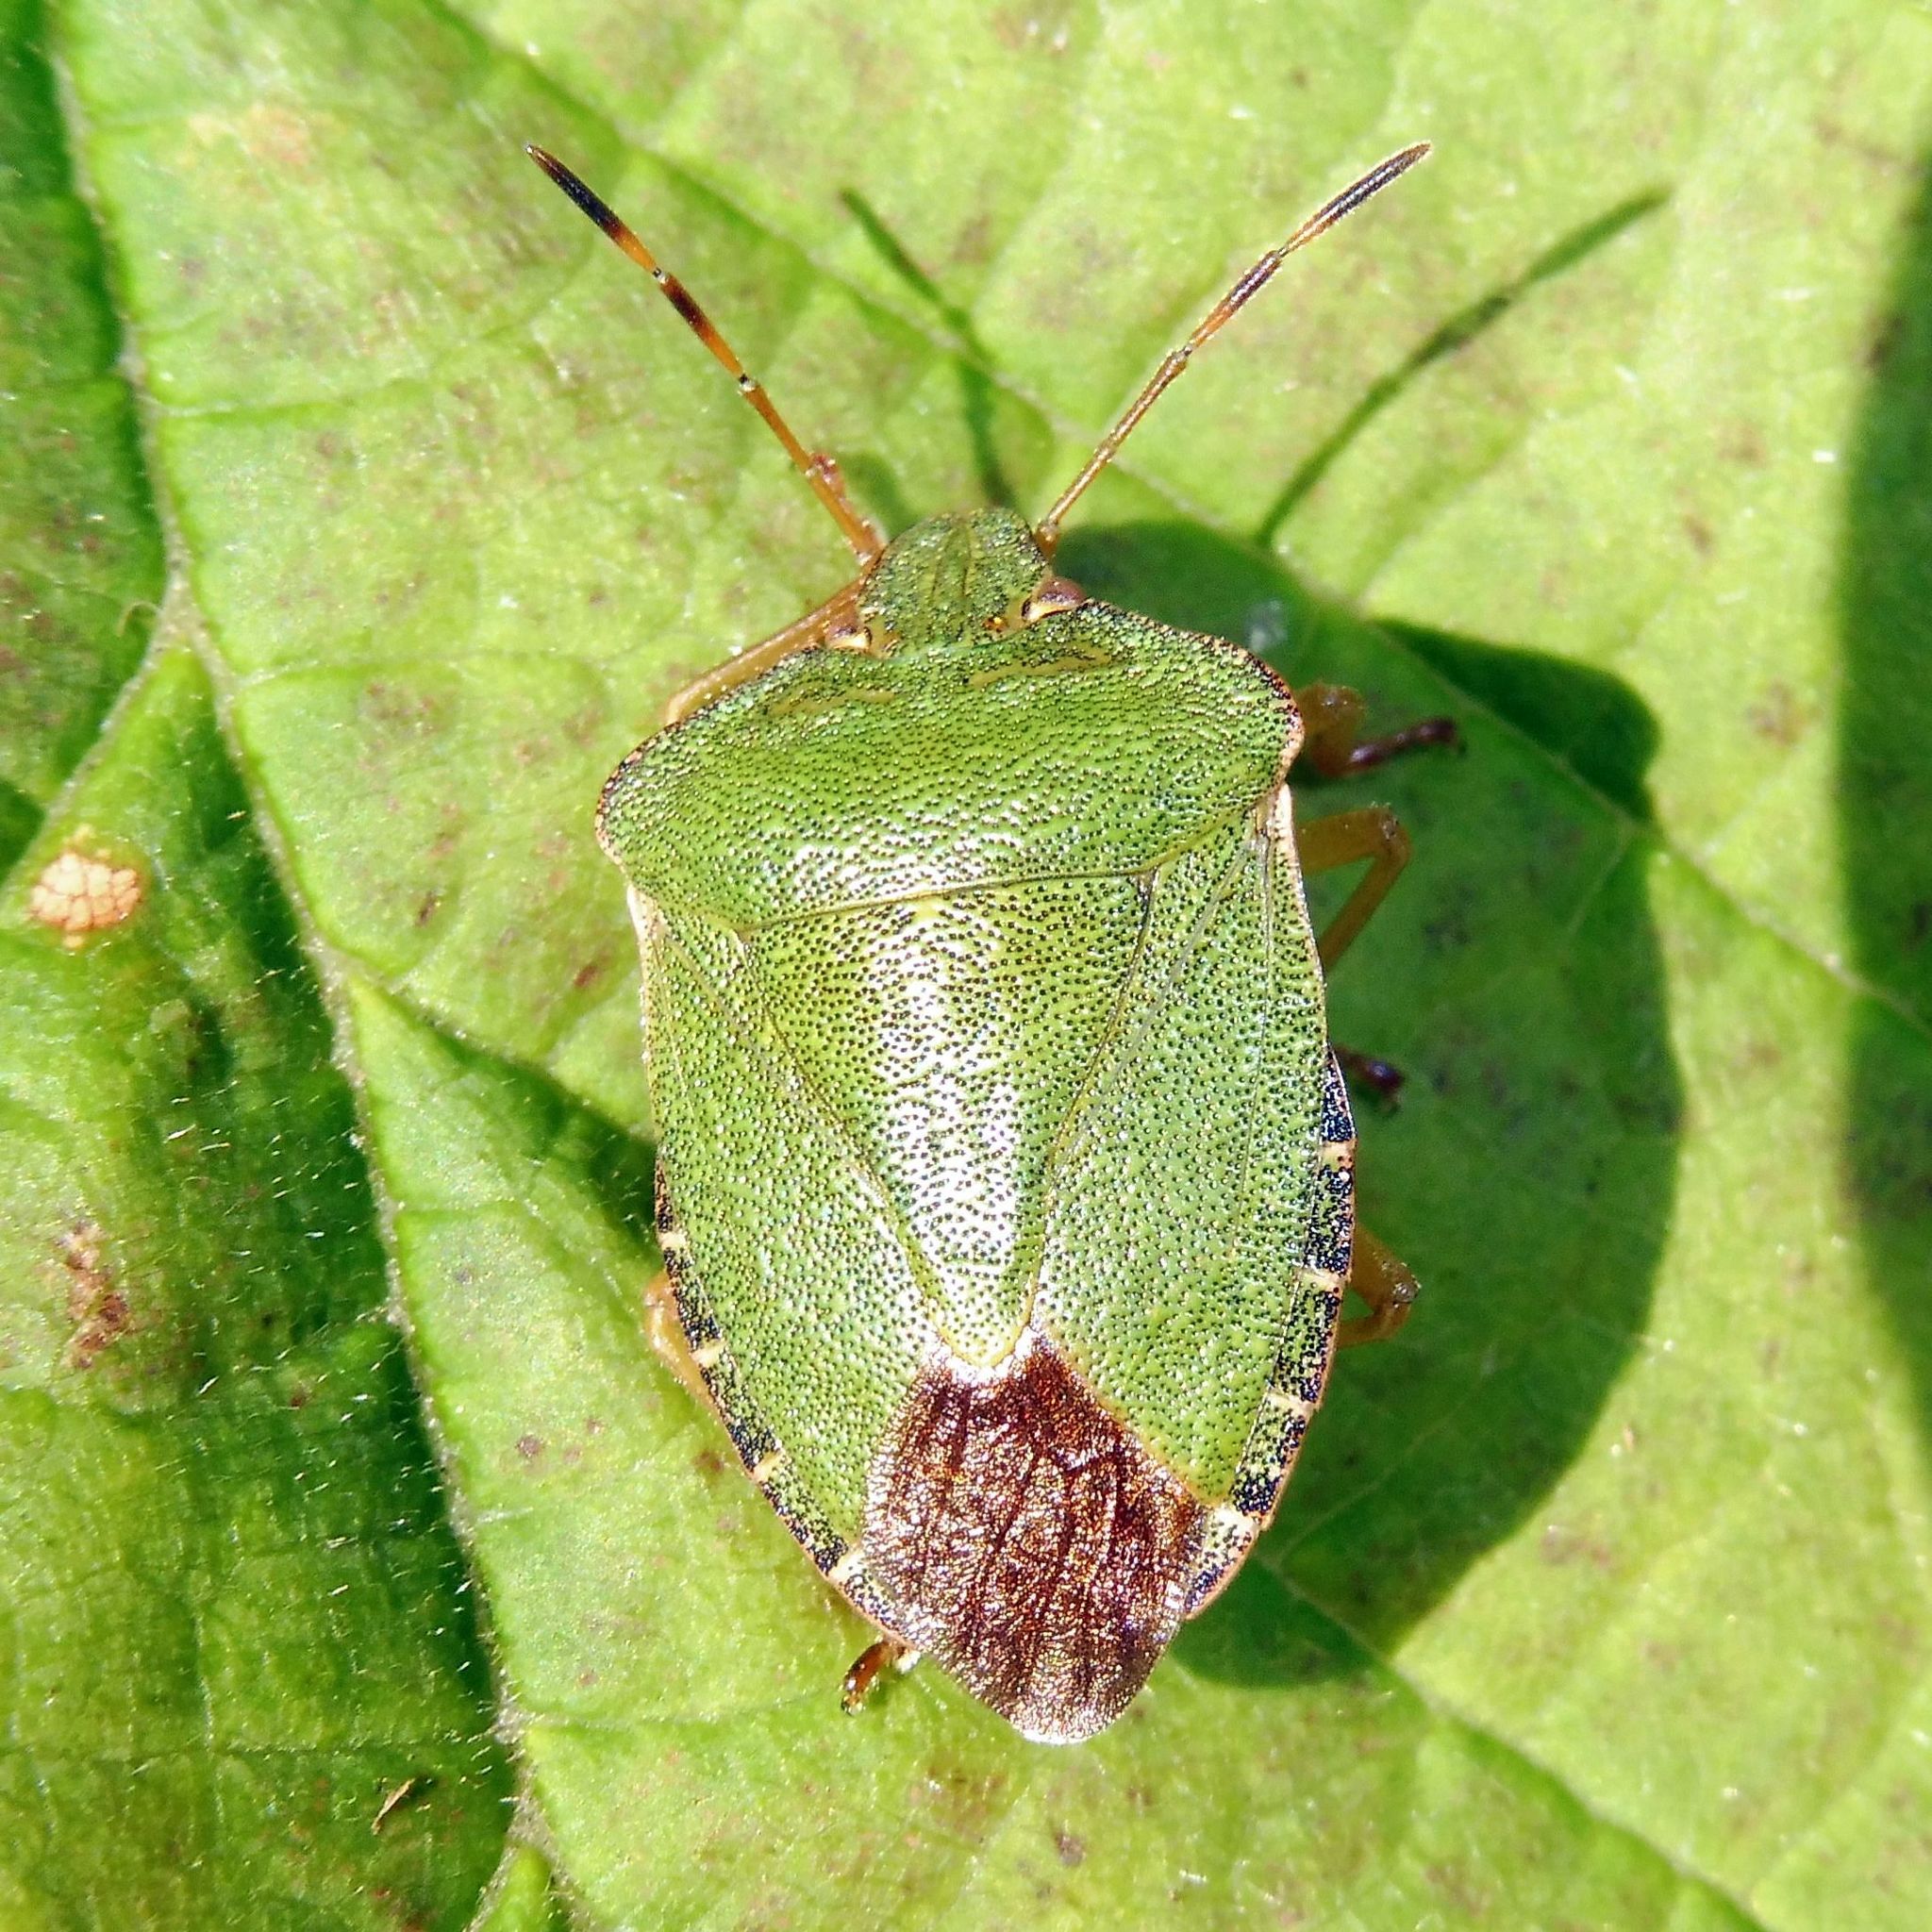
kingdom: Animalia
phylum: Arthropoda
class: Insecta
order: Hemiptera
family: Pentatomidae
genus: Palomena
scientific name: Palomena prasina
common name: Green shieldbug
